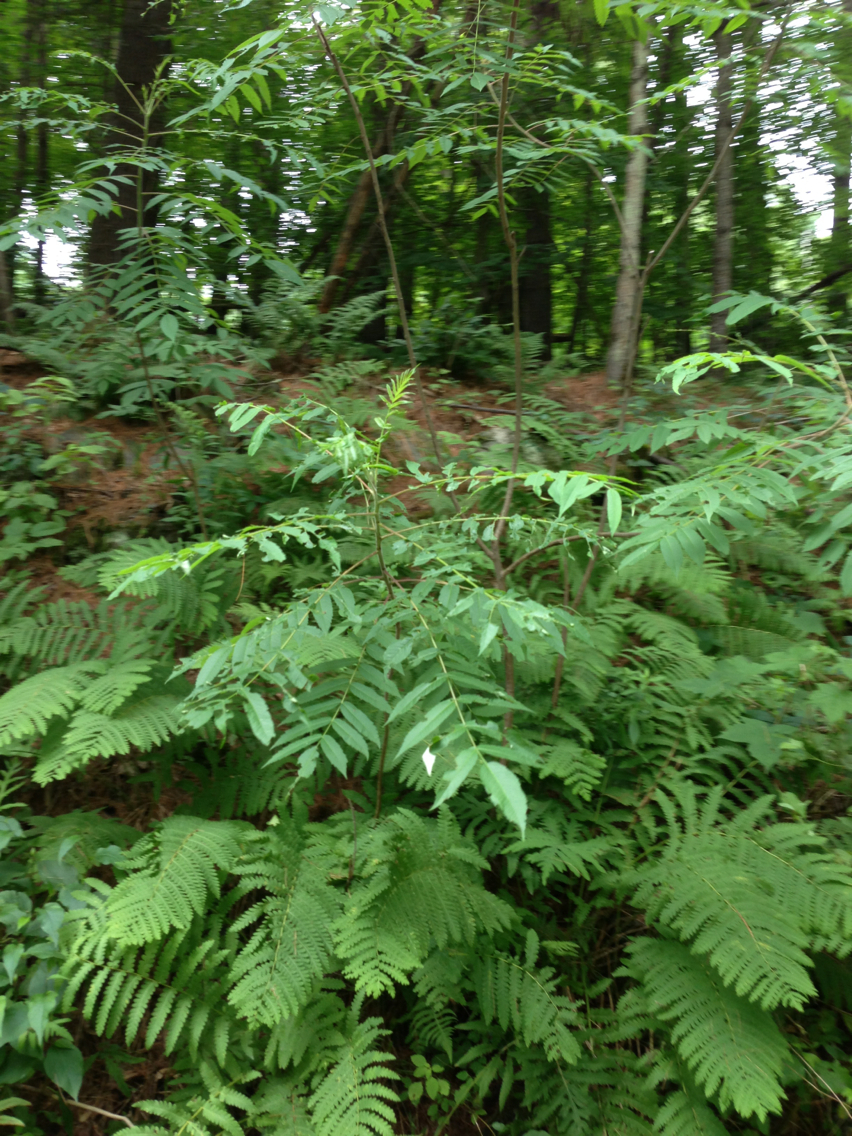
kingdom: Plantae
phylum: Tracheophyta
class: Magnoliopsida
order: Sapindales
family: Anacardiaceae
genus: Rhus
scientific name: Rhus typhina
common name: Staghorn sumac
